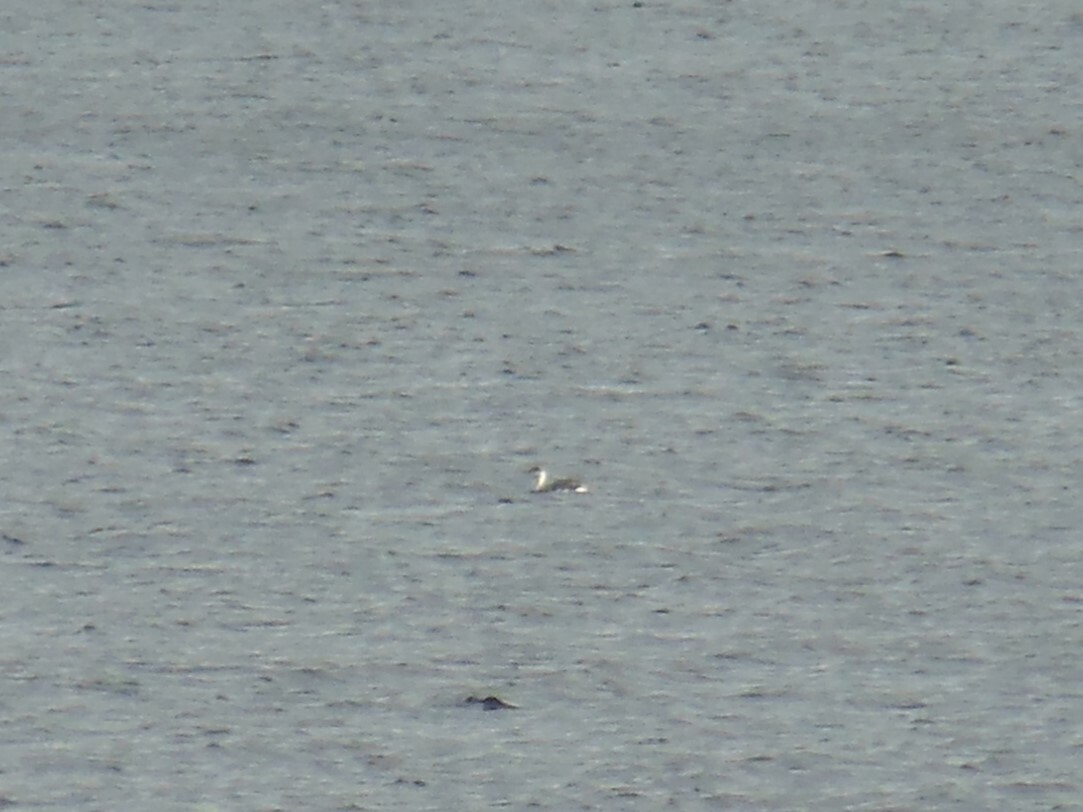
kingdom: Animalia
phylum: Chordata
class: Aves
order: Gaviiformes
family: Gaviidae
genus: Gavia
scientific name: Gavia stellata
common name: Red-throated loon
